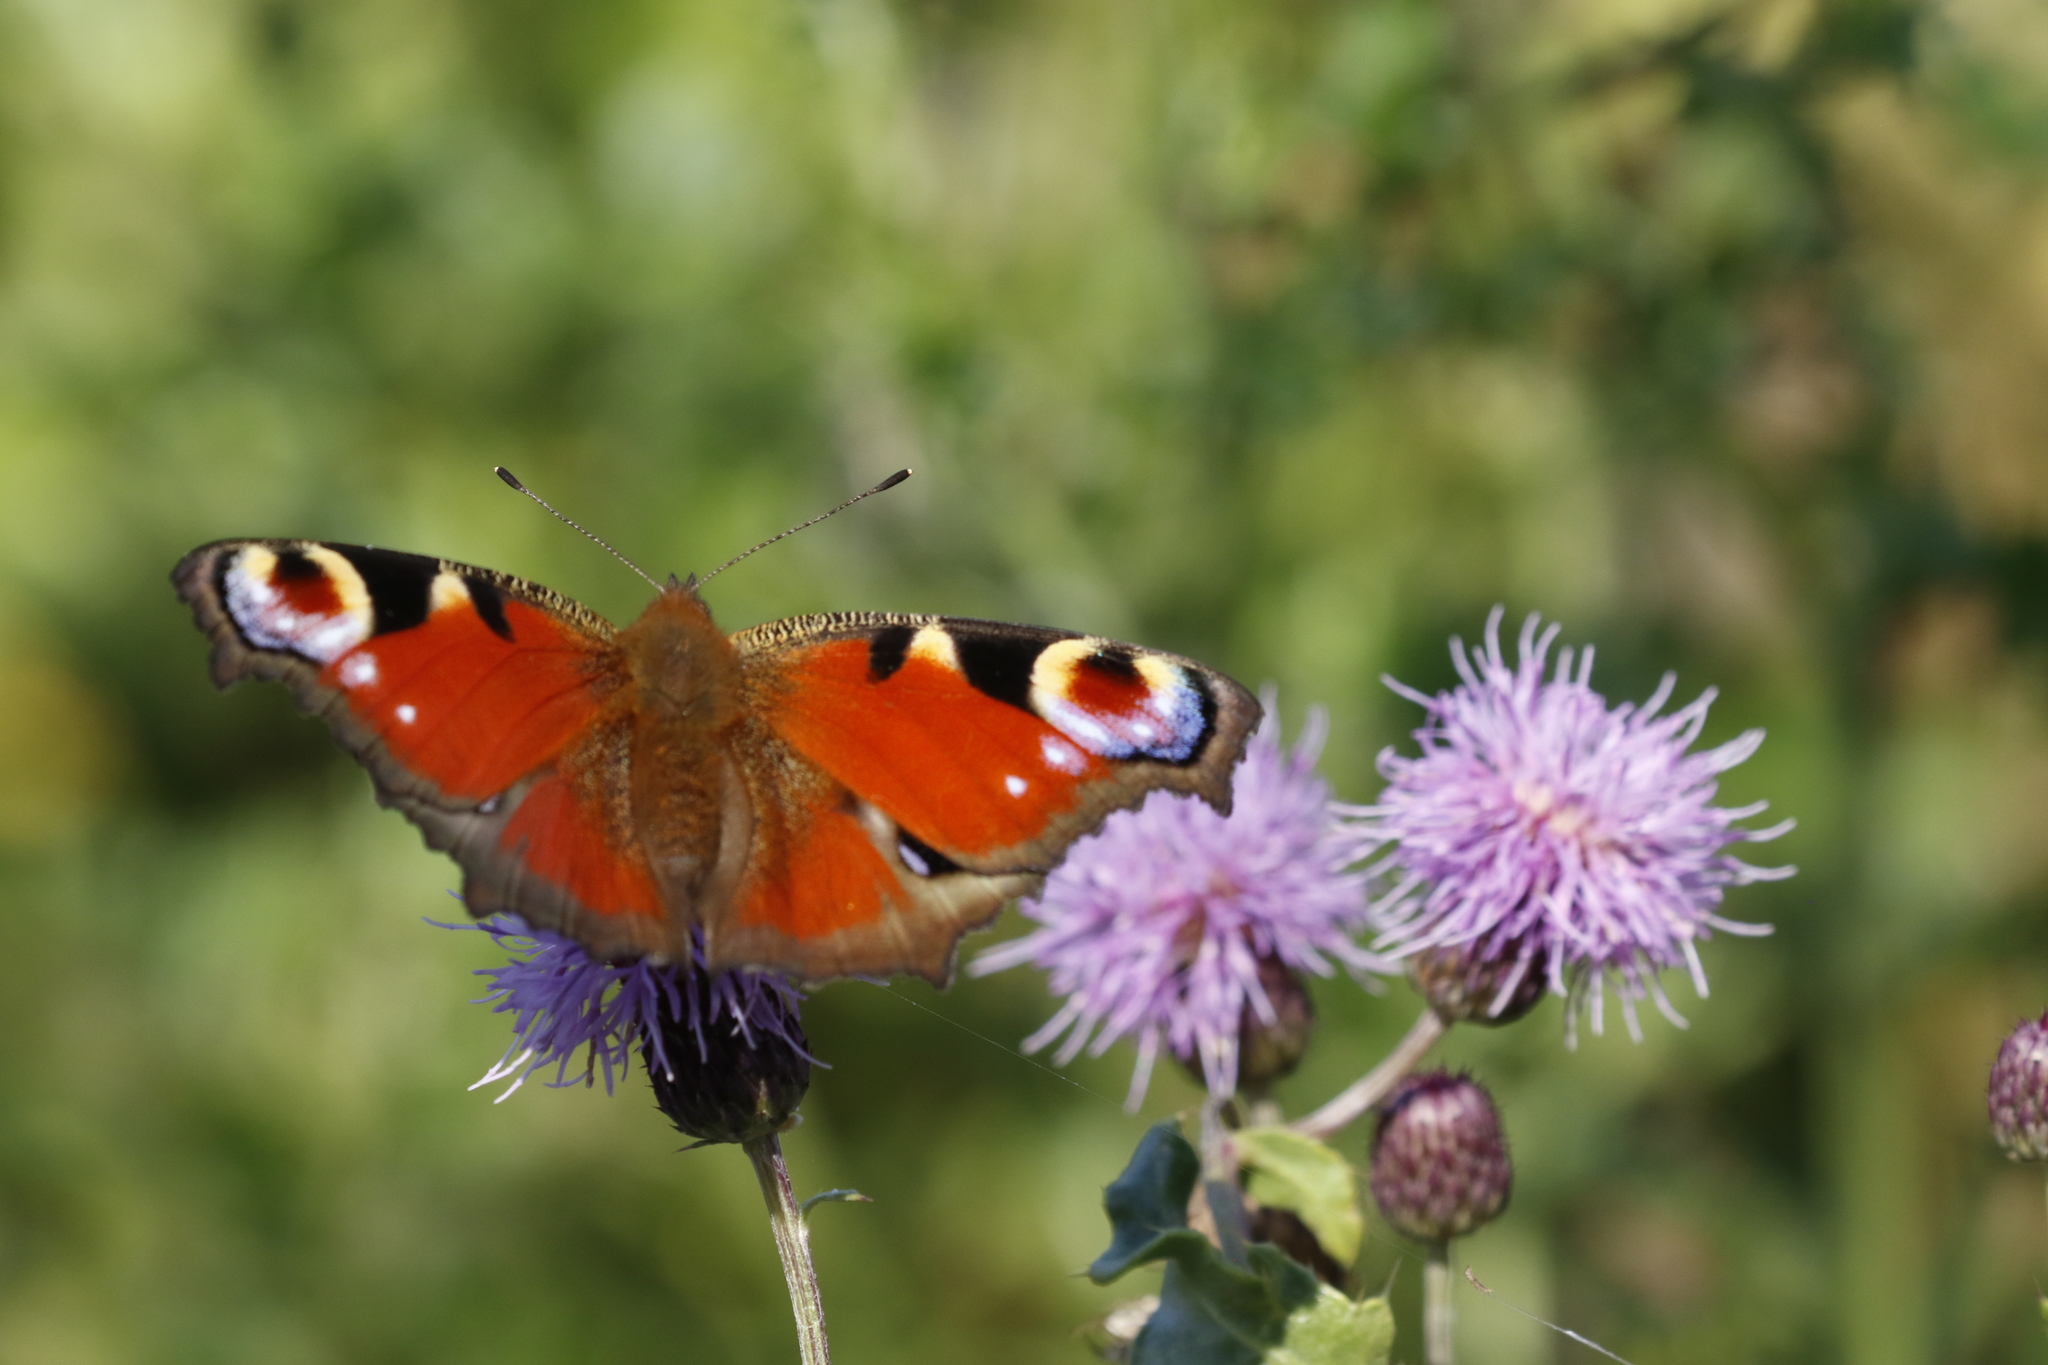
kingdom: Animalia
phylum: Arthropoda
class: Insecta
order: Lepidoptera
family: Nymphalidae
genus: Aglais
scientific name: Aglais io
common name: Peacock
